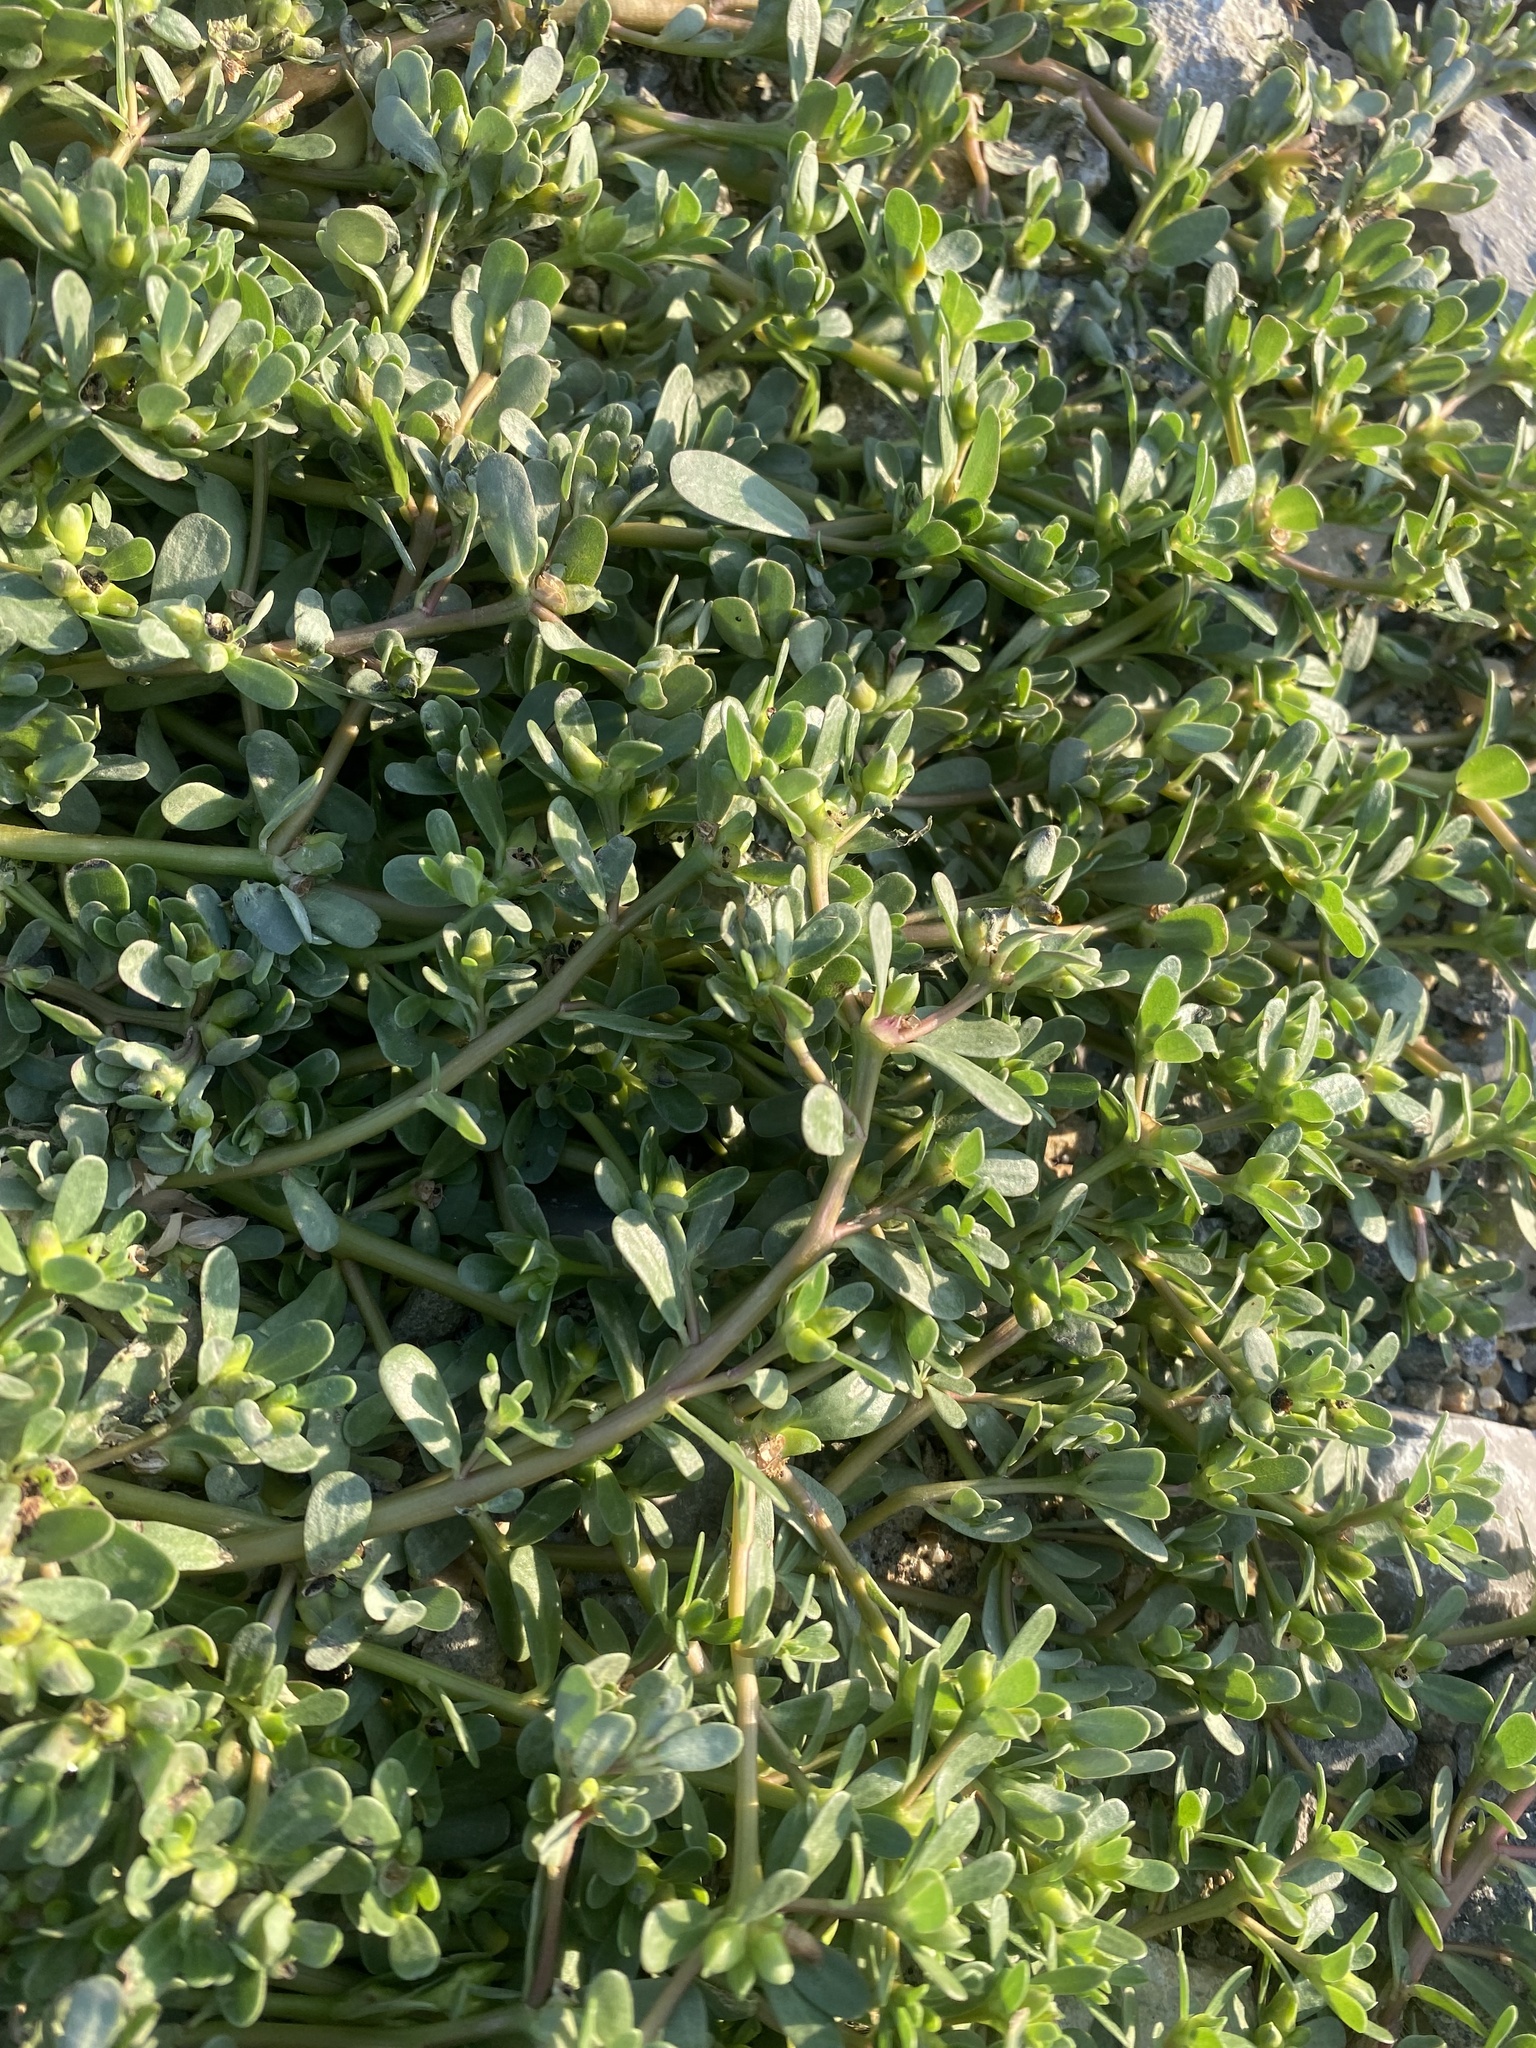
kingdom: Plantae
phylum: Tracheophyta
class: Magnoliopsida
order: Caryophyllales
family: Portulacaceae
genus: Portulaca
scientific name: Portulaca oleracea
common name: Common purslane
